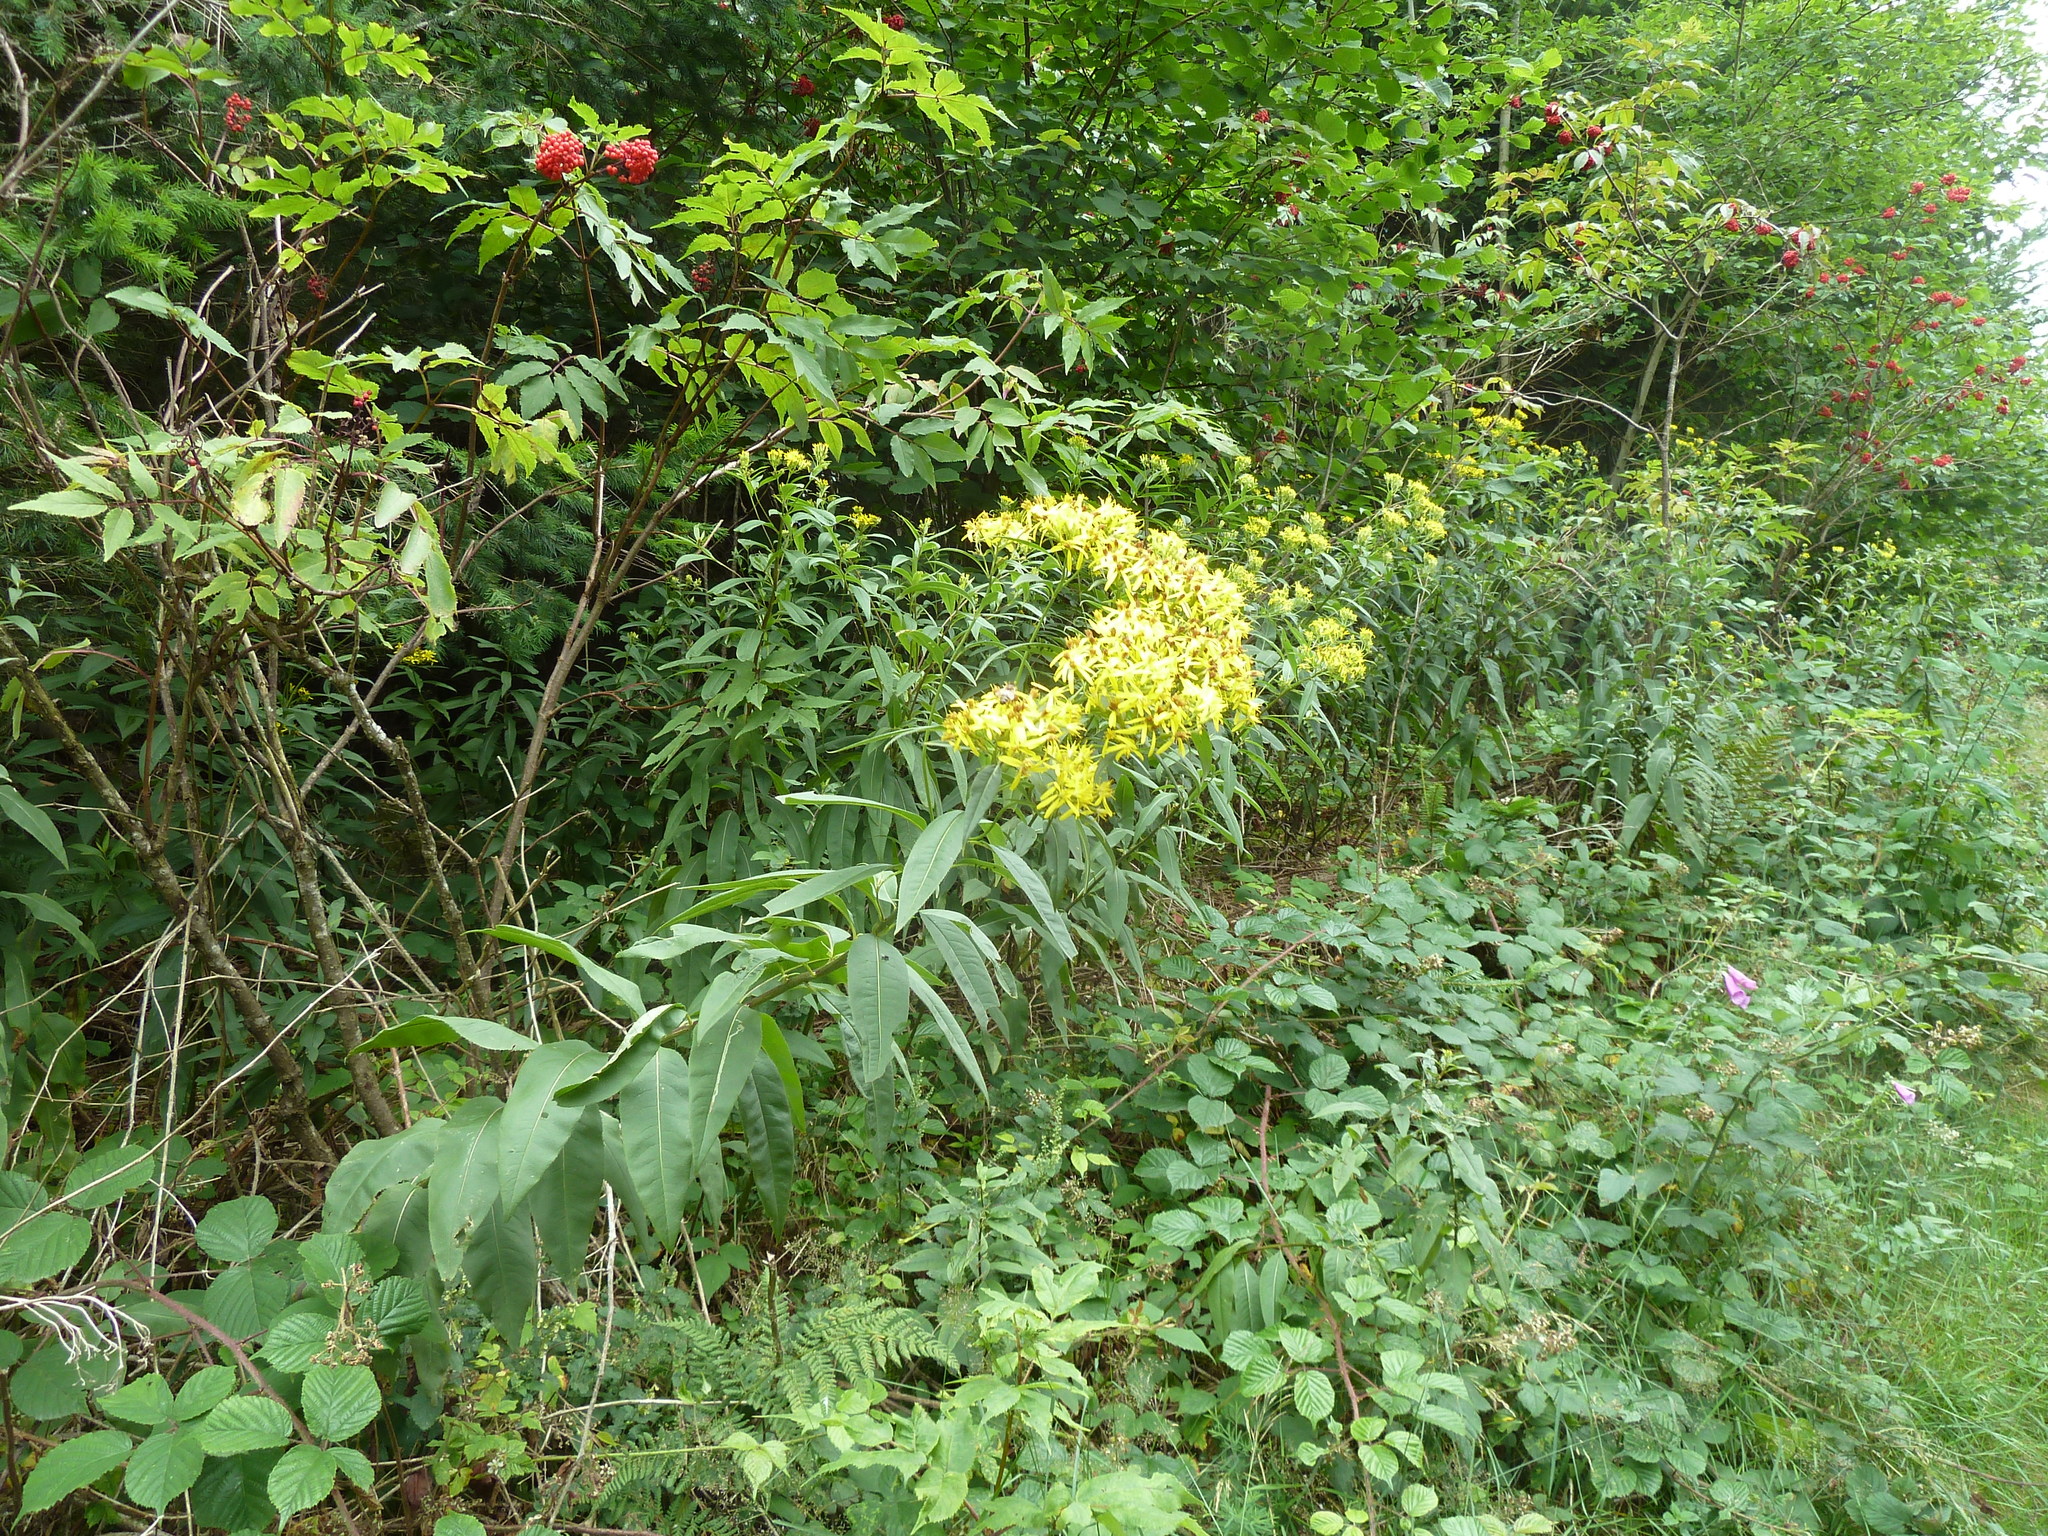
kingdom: Plantae
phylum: Tracheophyta
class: Magnoliopsida
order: Asterales
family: Asteraceae
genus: Senecio
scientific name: Senecio ovatus
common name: Wood ragwort
